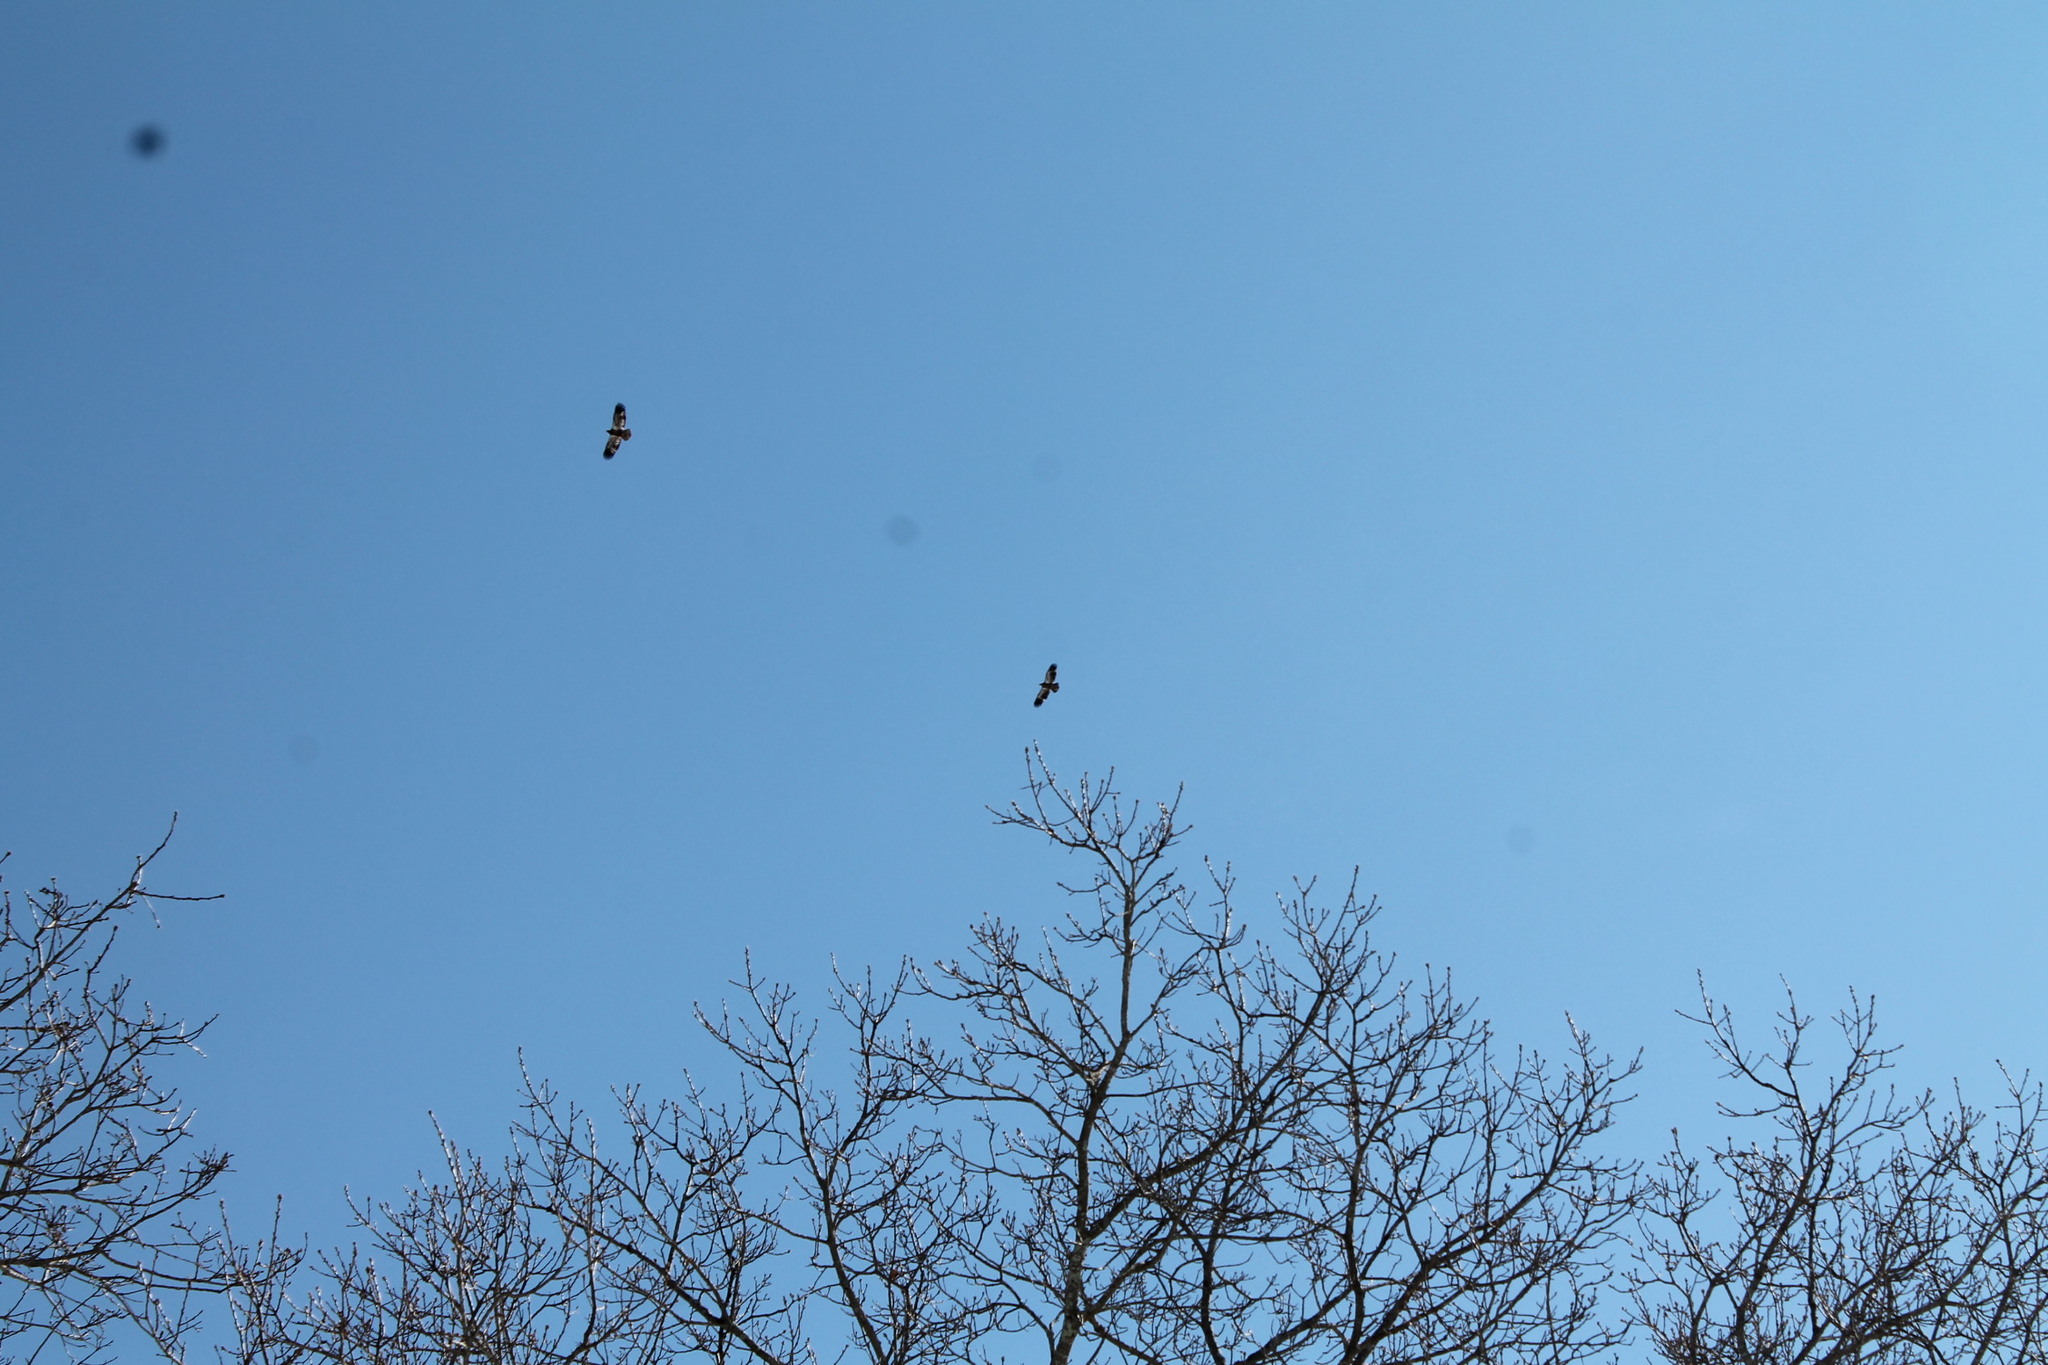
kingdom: Animalia
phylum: Chordata
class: Aves
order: Accipitriformes
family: Accipitridae
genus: Haliaeetus
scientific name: Haliaeetus leucocephalus
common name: Bald eagle
